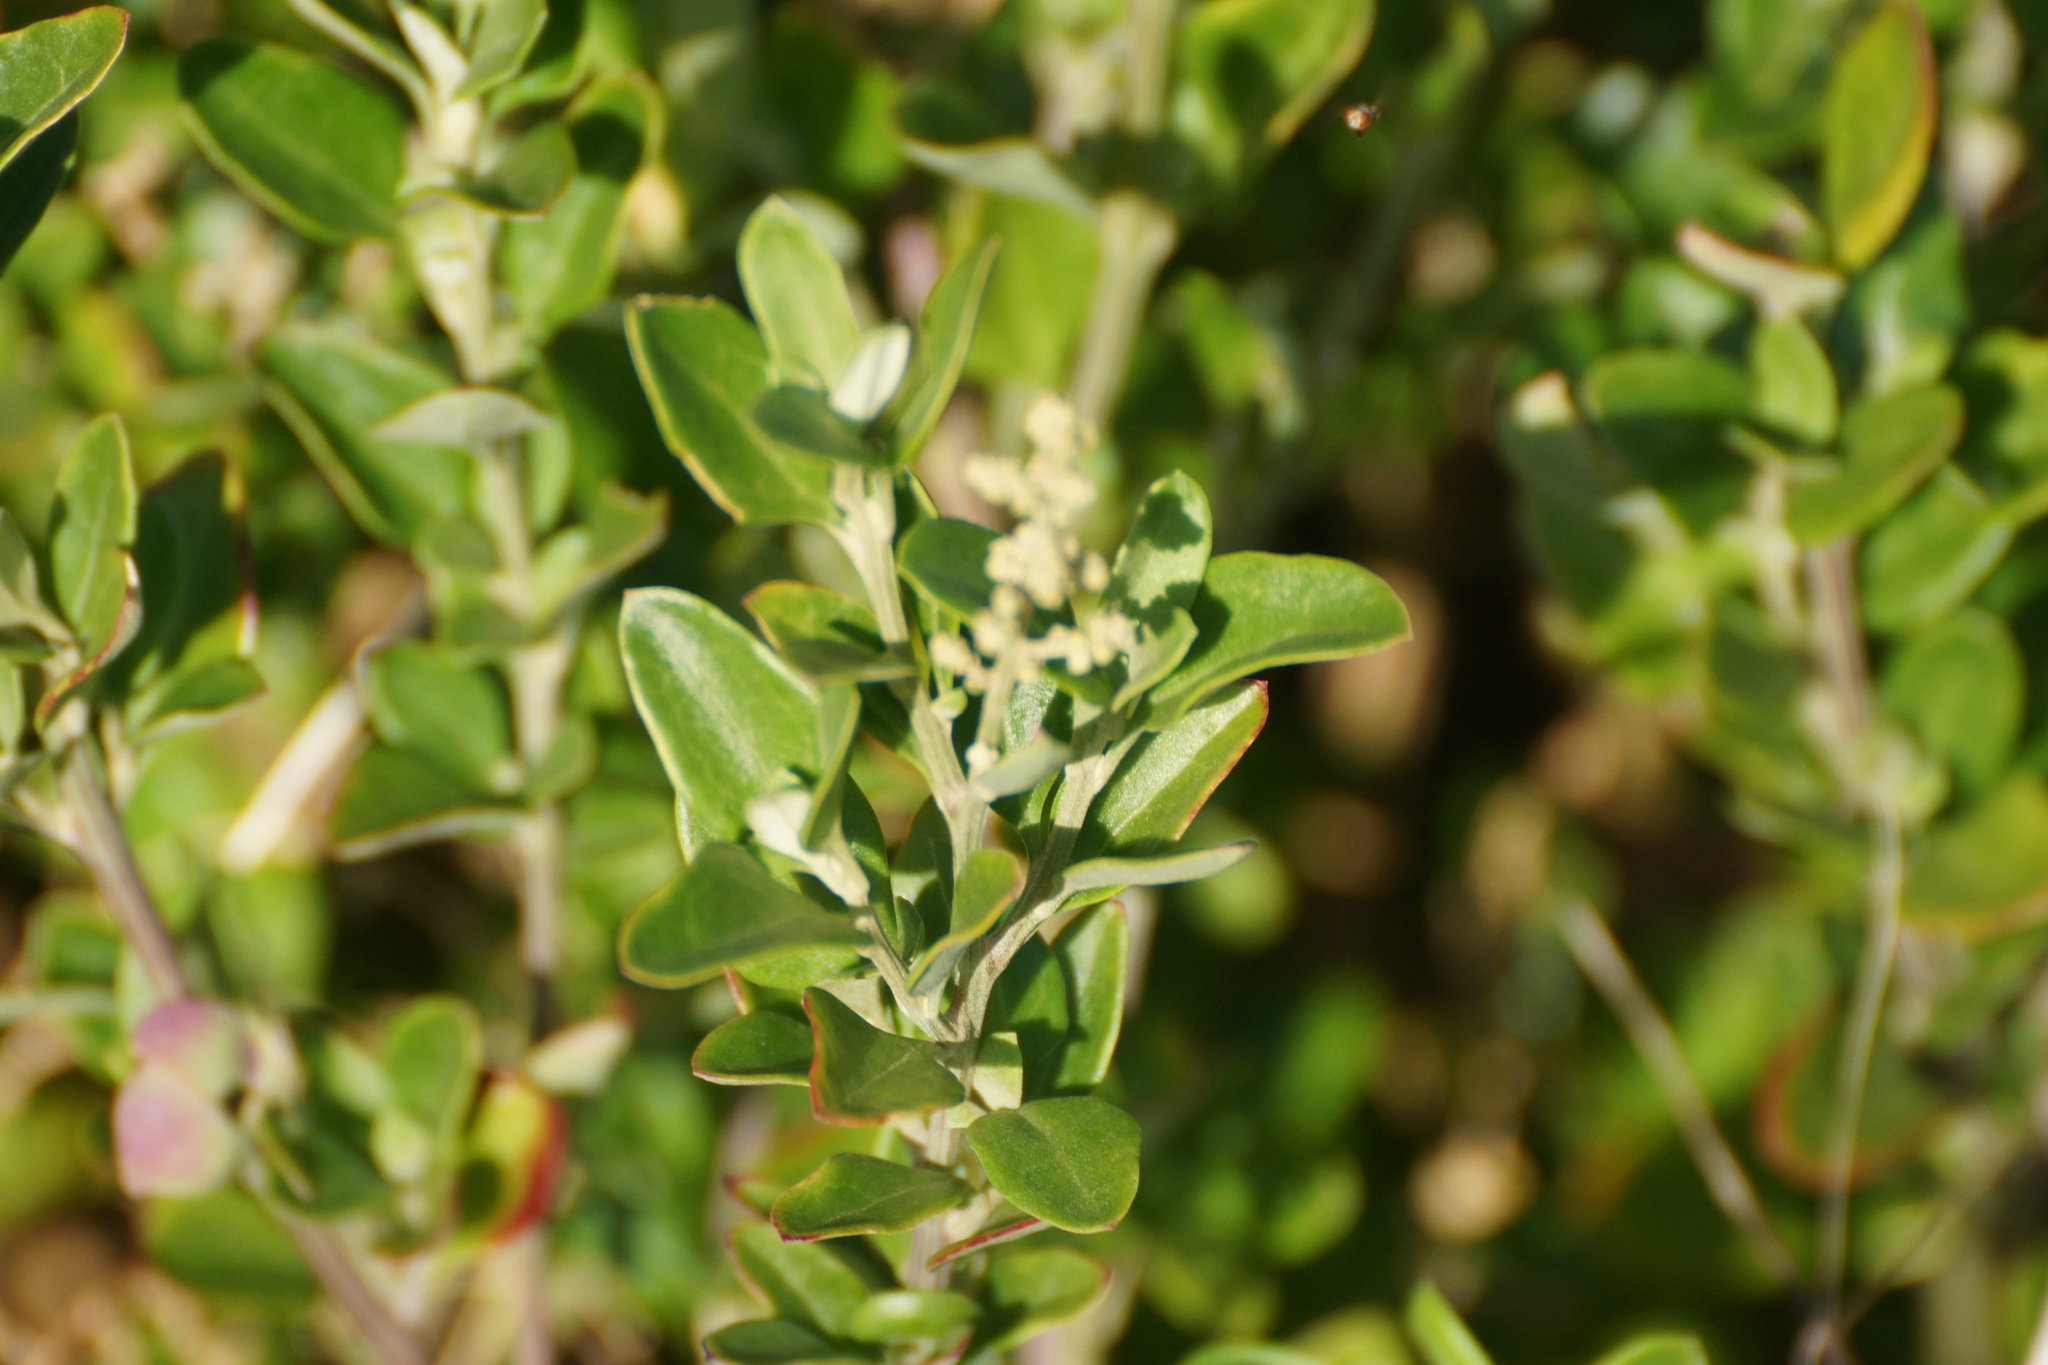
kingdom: Plantae
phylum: Tracheophyta
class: Magnoliopsida
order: Caryophyllales
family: Amaranthaceae
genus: Chenopodium
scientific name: Chenopodium candolleanum
